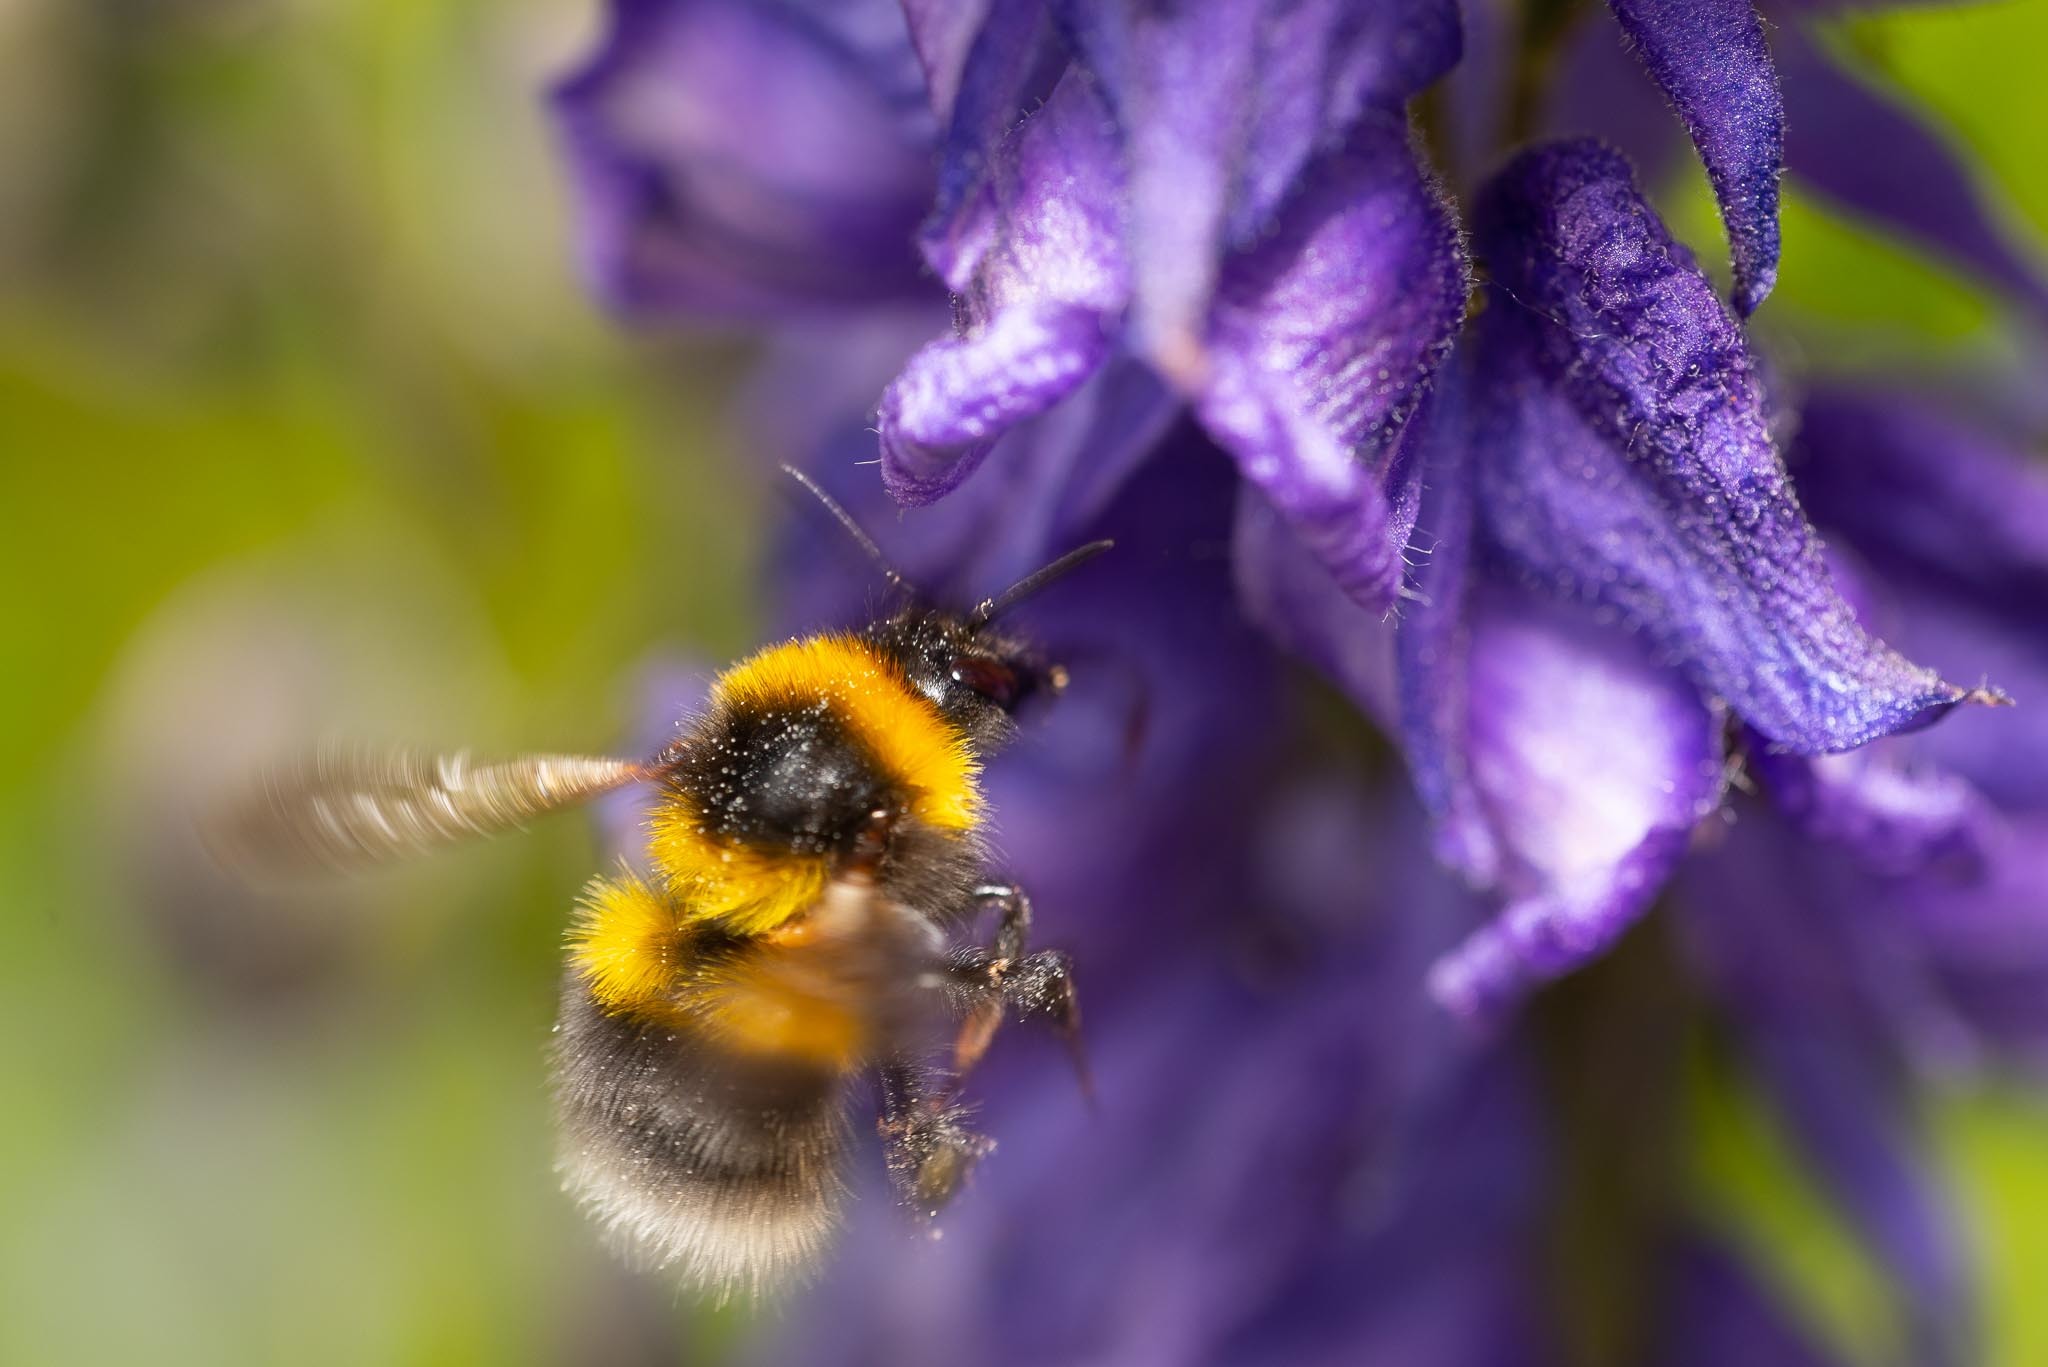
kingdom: Animalia
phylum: Arthropoda
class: Insecta
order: Hymenoptera
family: Apidae
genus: Bombus
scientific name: Bombus hortorum
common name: Garden bumblebee
